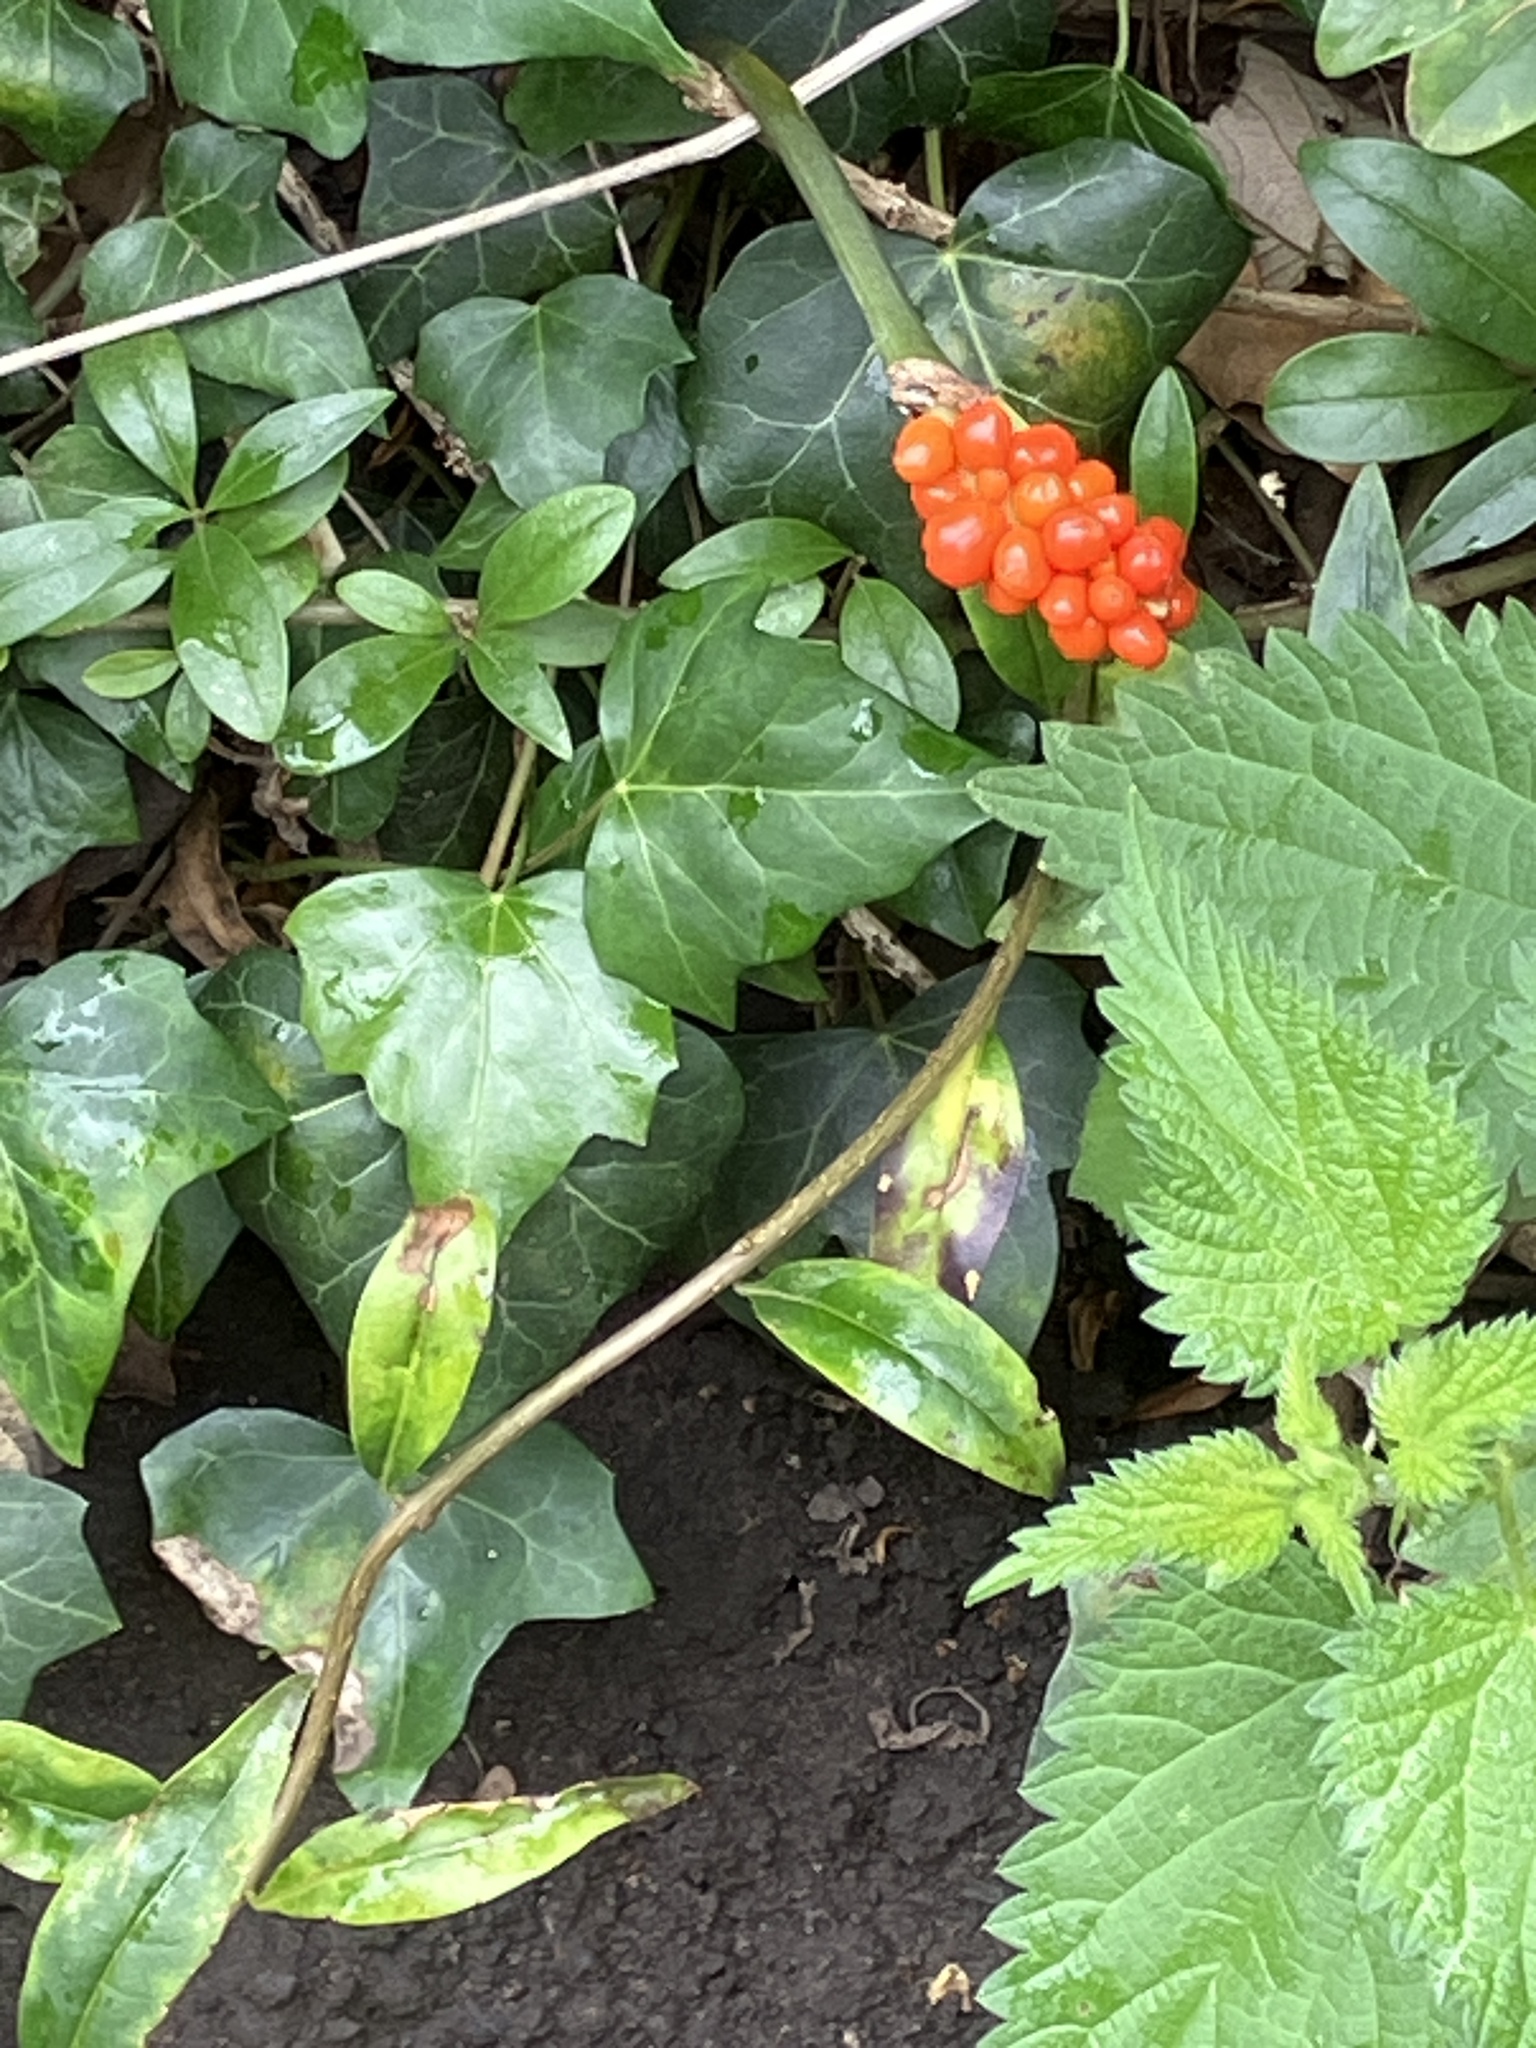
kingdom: Plantae
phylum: Tracheophyta
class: Liliopsida
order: Alismatales
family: Araceae
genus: Arum
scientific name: Arum maculatum
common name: Lords-and-ladies
